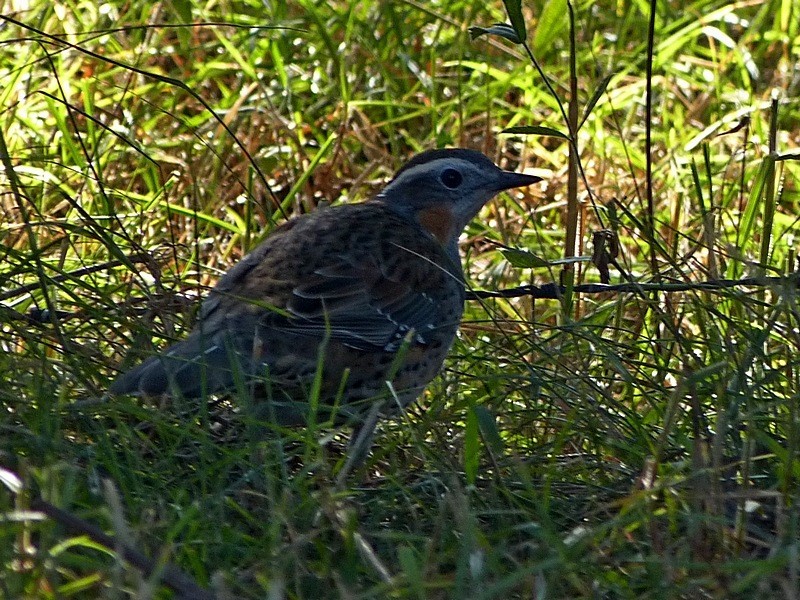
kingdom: Animalia
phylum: Chordata
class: Aves
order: Passeriformes
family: Psophodidae
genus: Cinclosoma
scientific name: Cinclosoma punctatum
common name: Spotted quail-thrush
